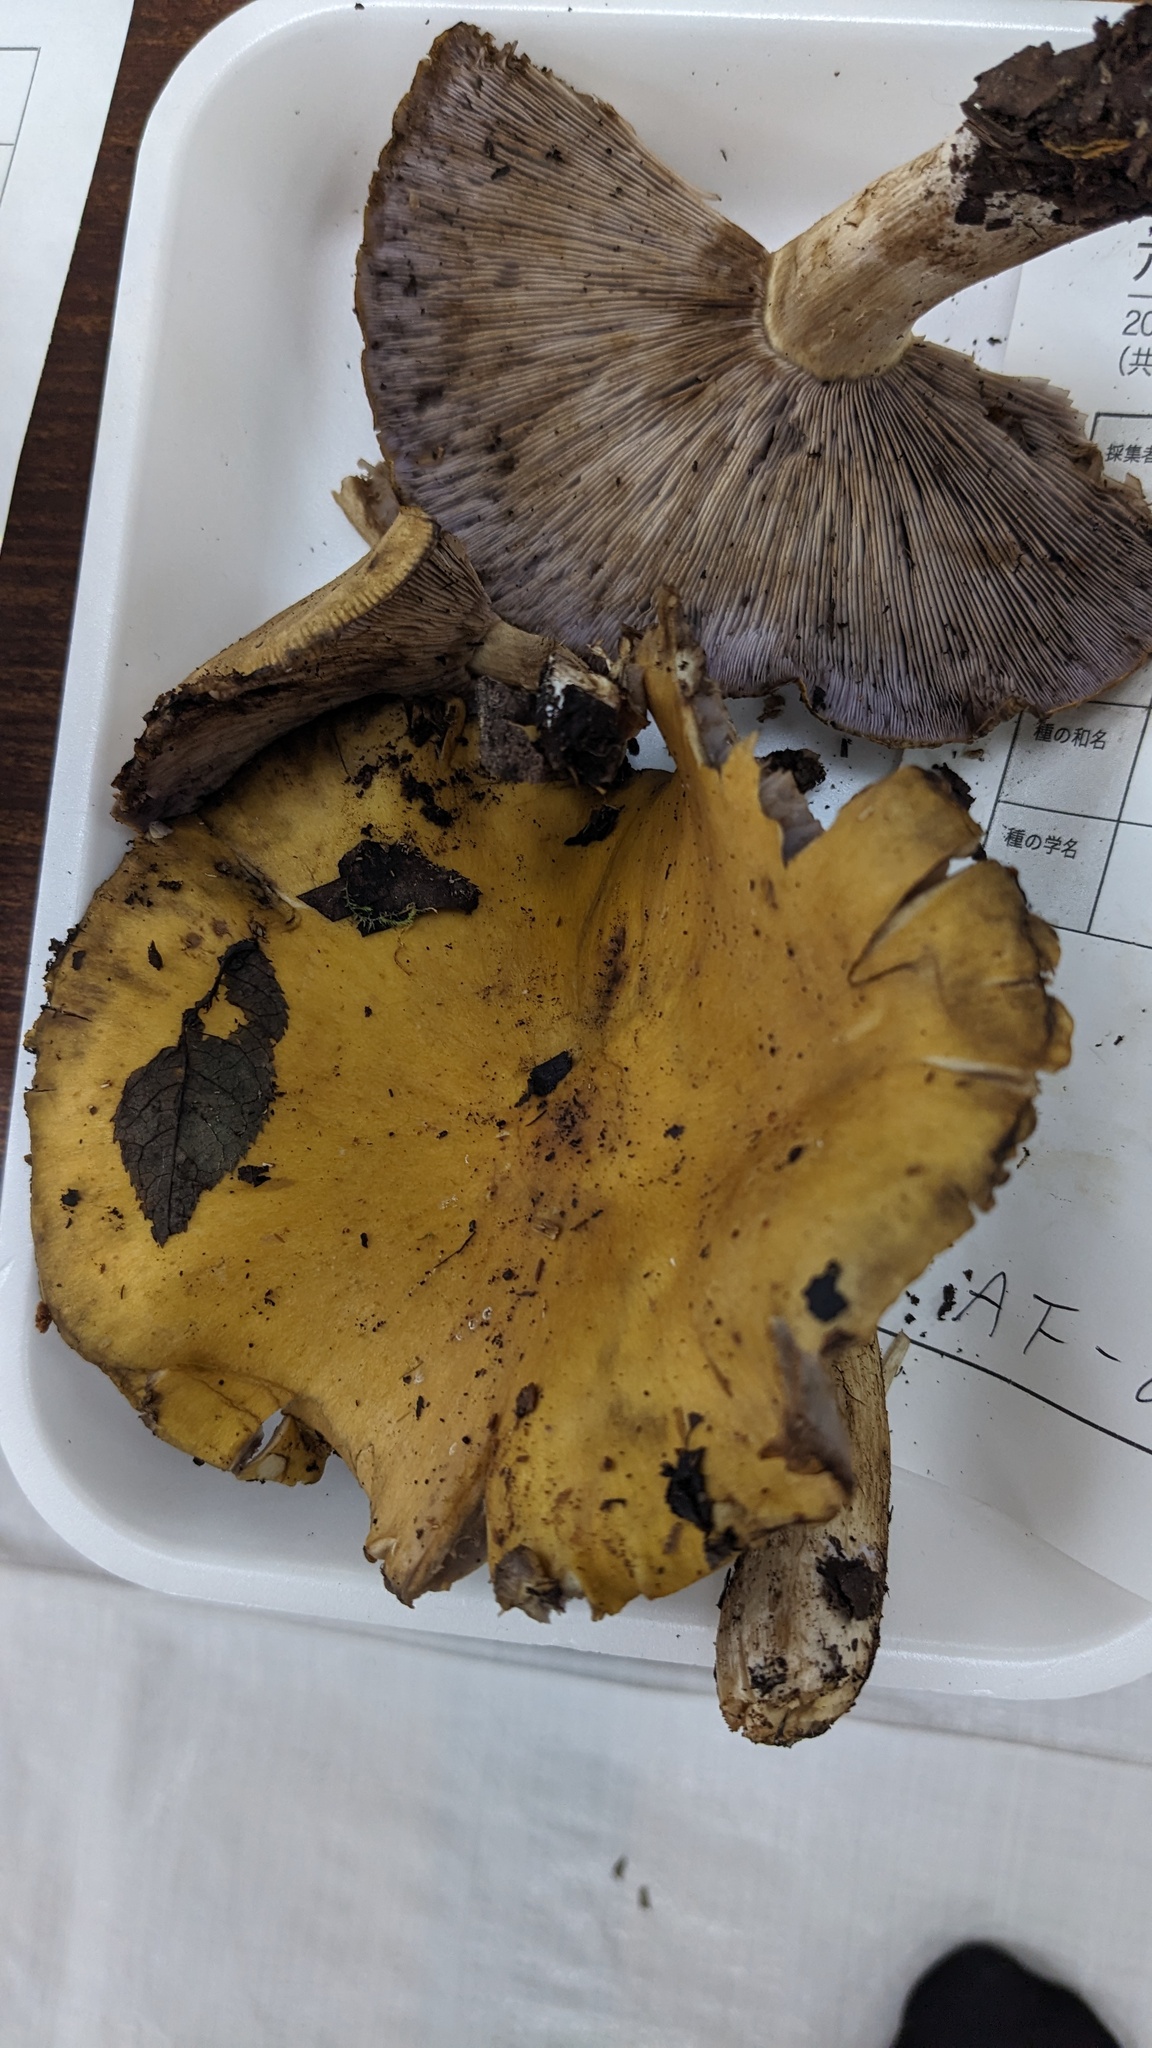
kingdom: Fungi
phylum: Basidiomycota
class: Agaricomycetes
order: Agaricales
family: Tricholomataceae
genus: Tricholosporum
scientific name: Tricholosporum porphyrophyllum
